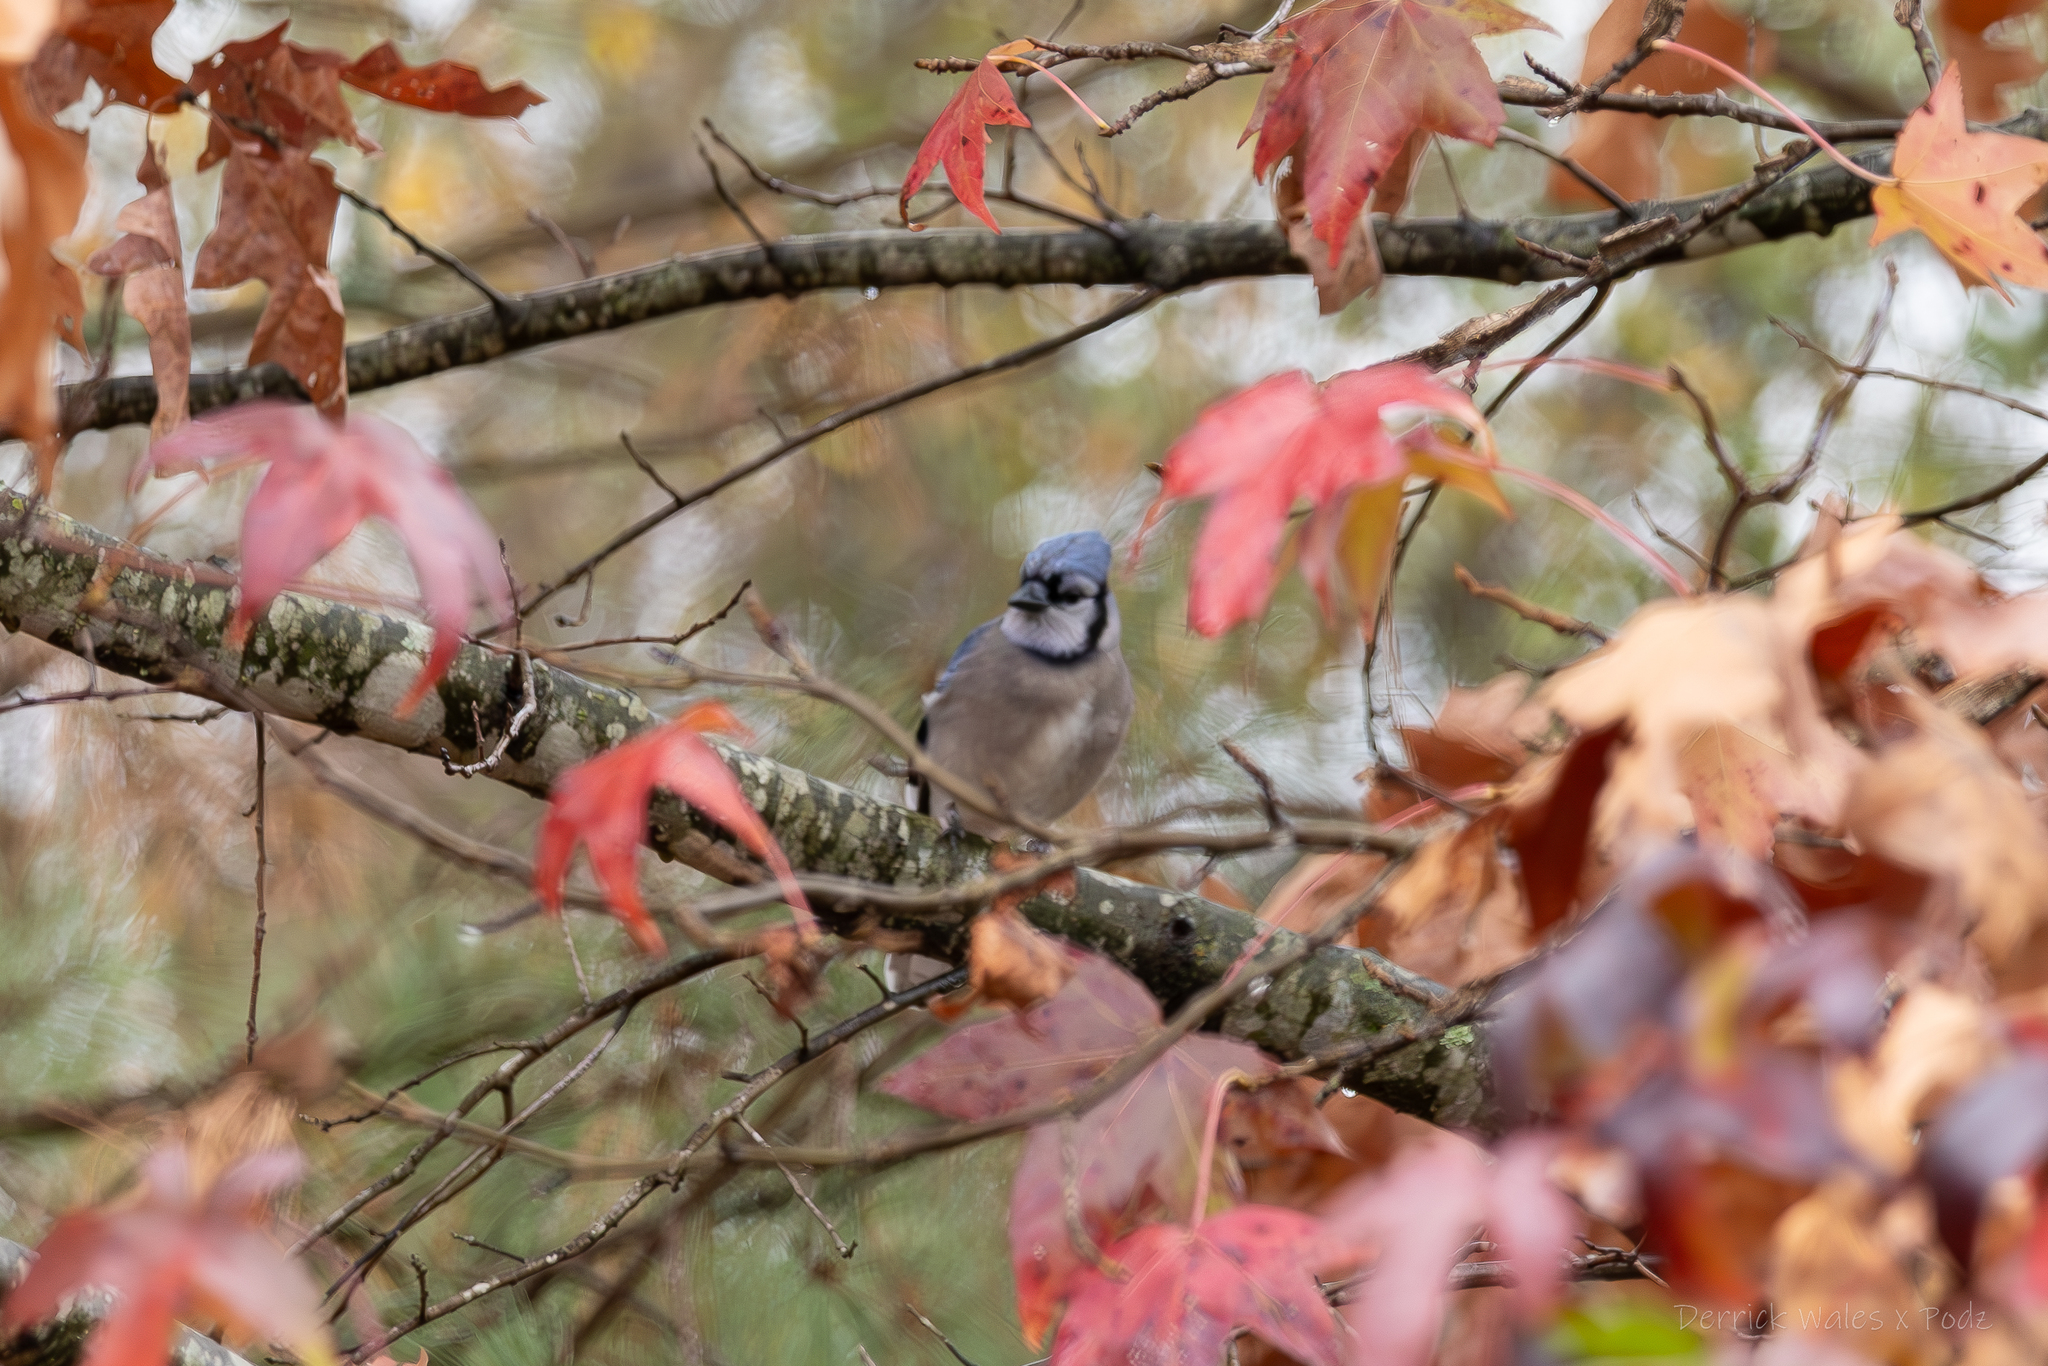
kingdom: Animalia
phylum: Chordata
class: Aves
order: Passeriformes
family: Corvidae
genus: Cyanocitta
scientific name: Cyanocitta cristata
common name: Blue jay
